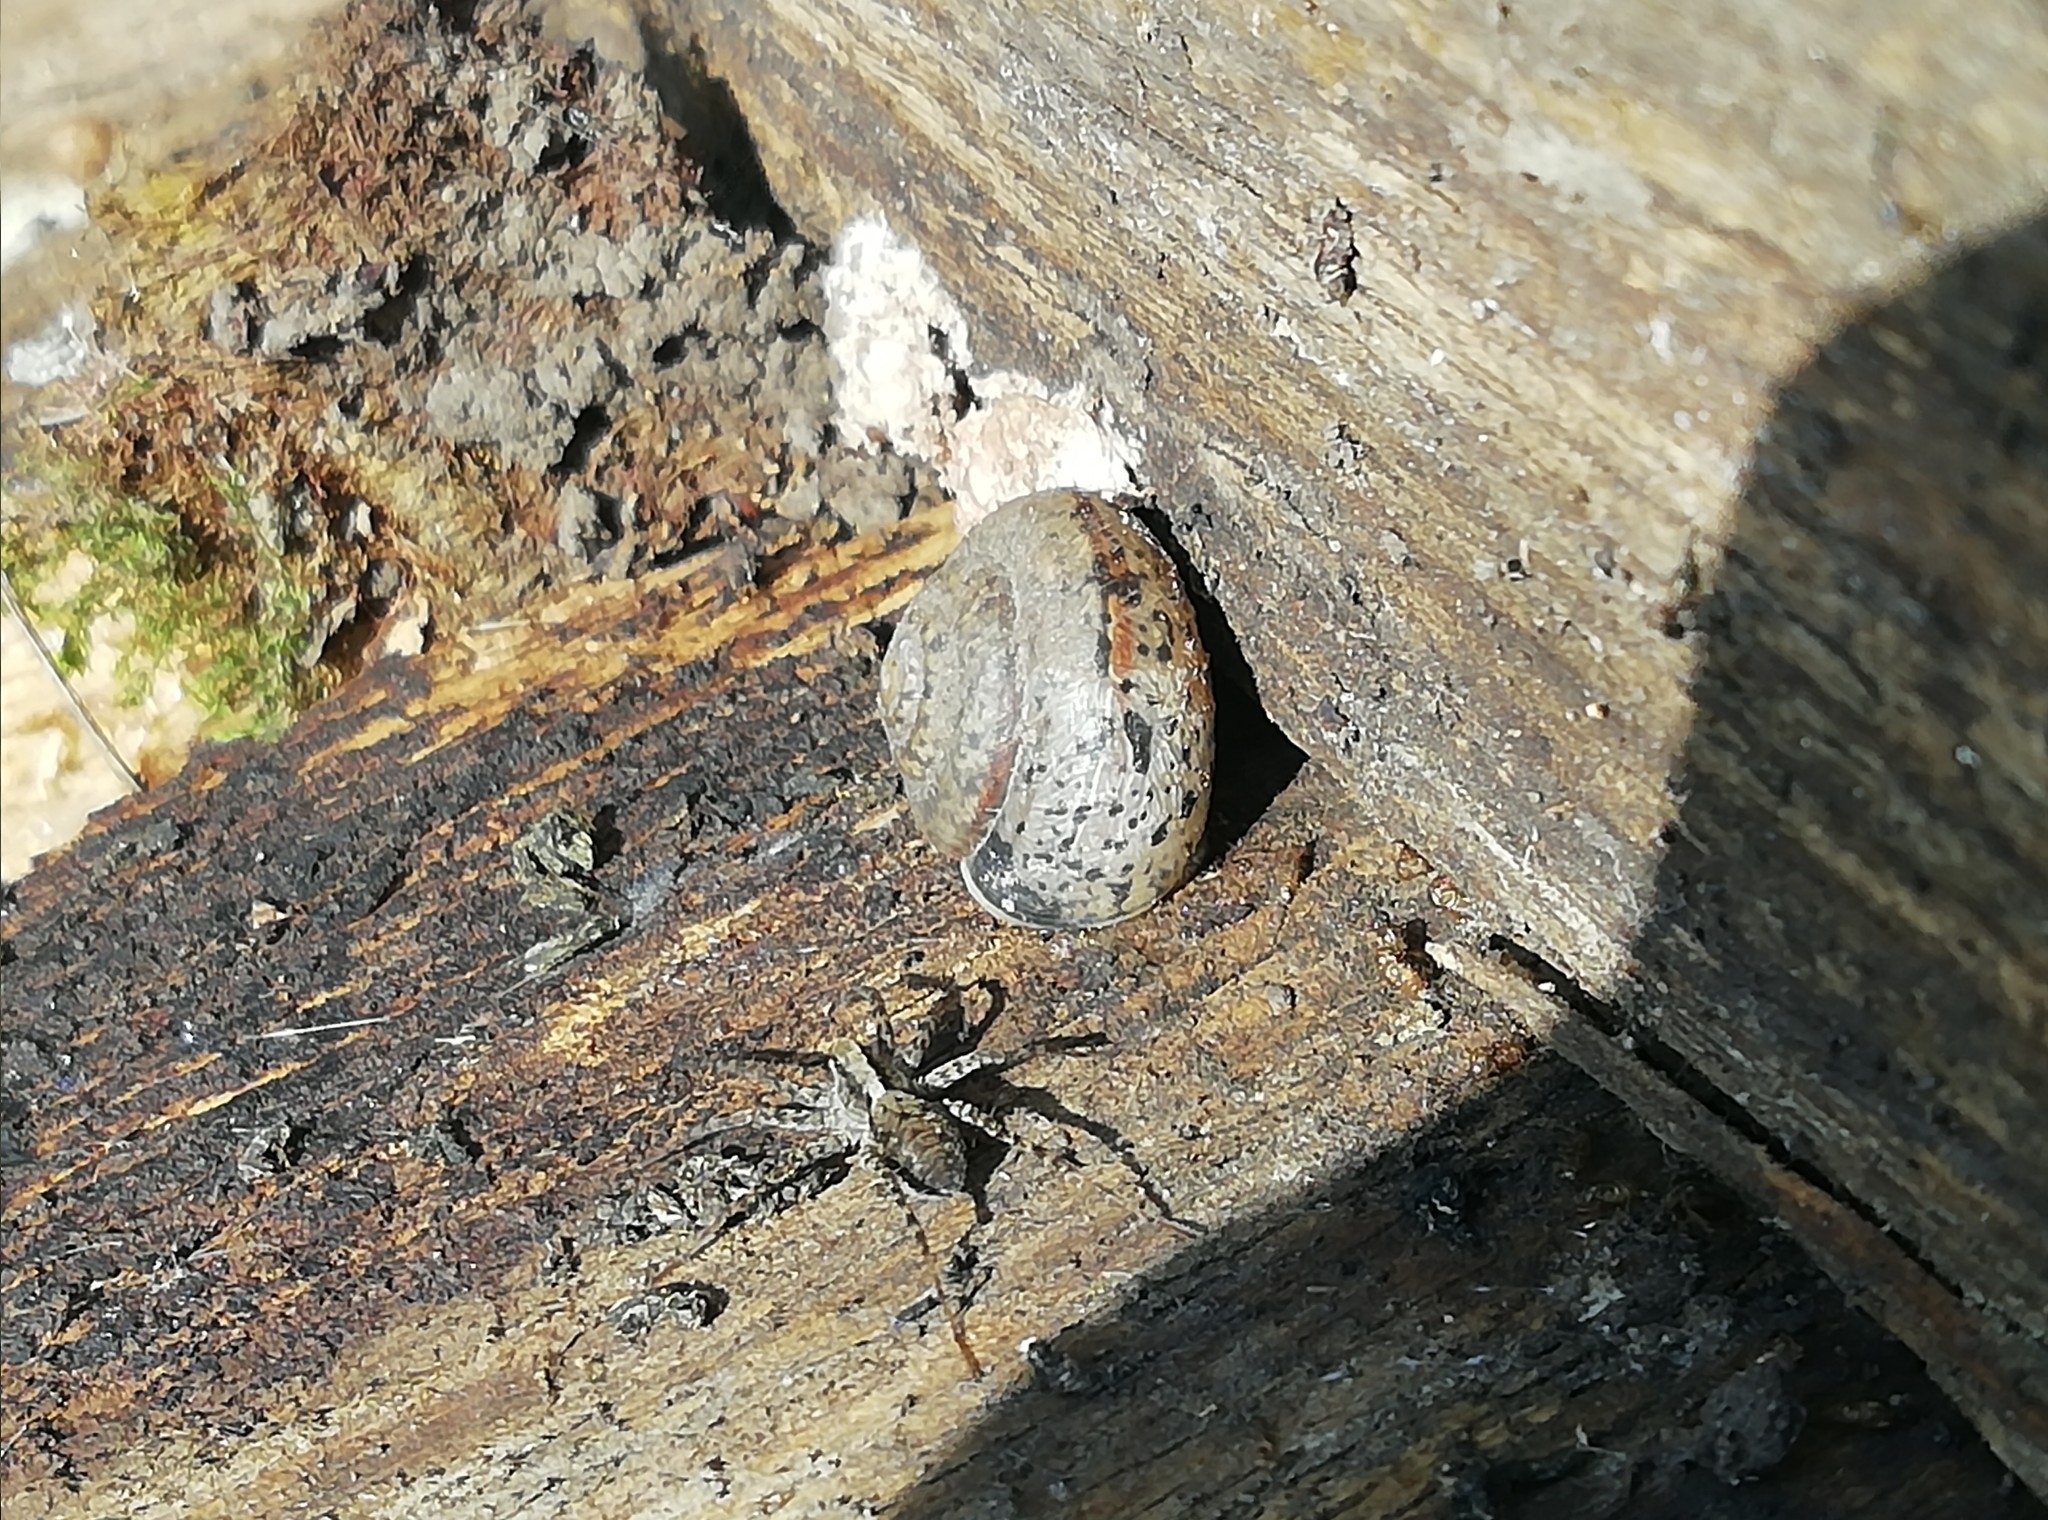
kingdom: Animalia
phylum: Mollusca
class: Gastropoda
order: Stylommatophora
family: Camaenidae
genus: Fruticicola
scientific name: Fruticicola fruticum
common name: Bush snail
